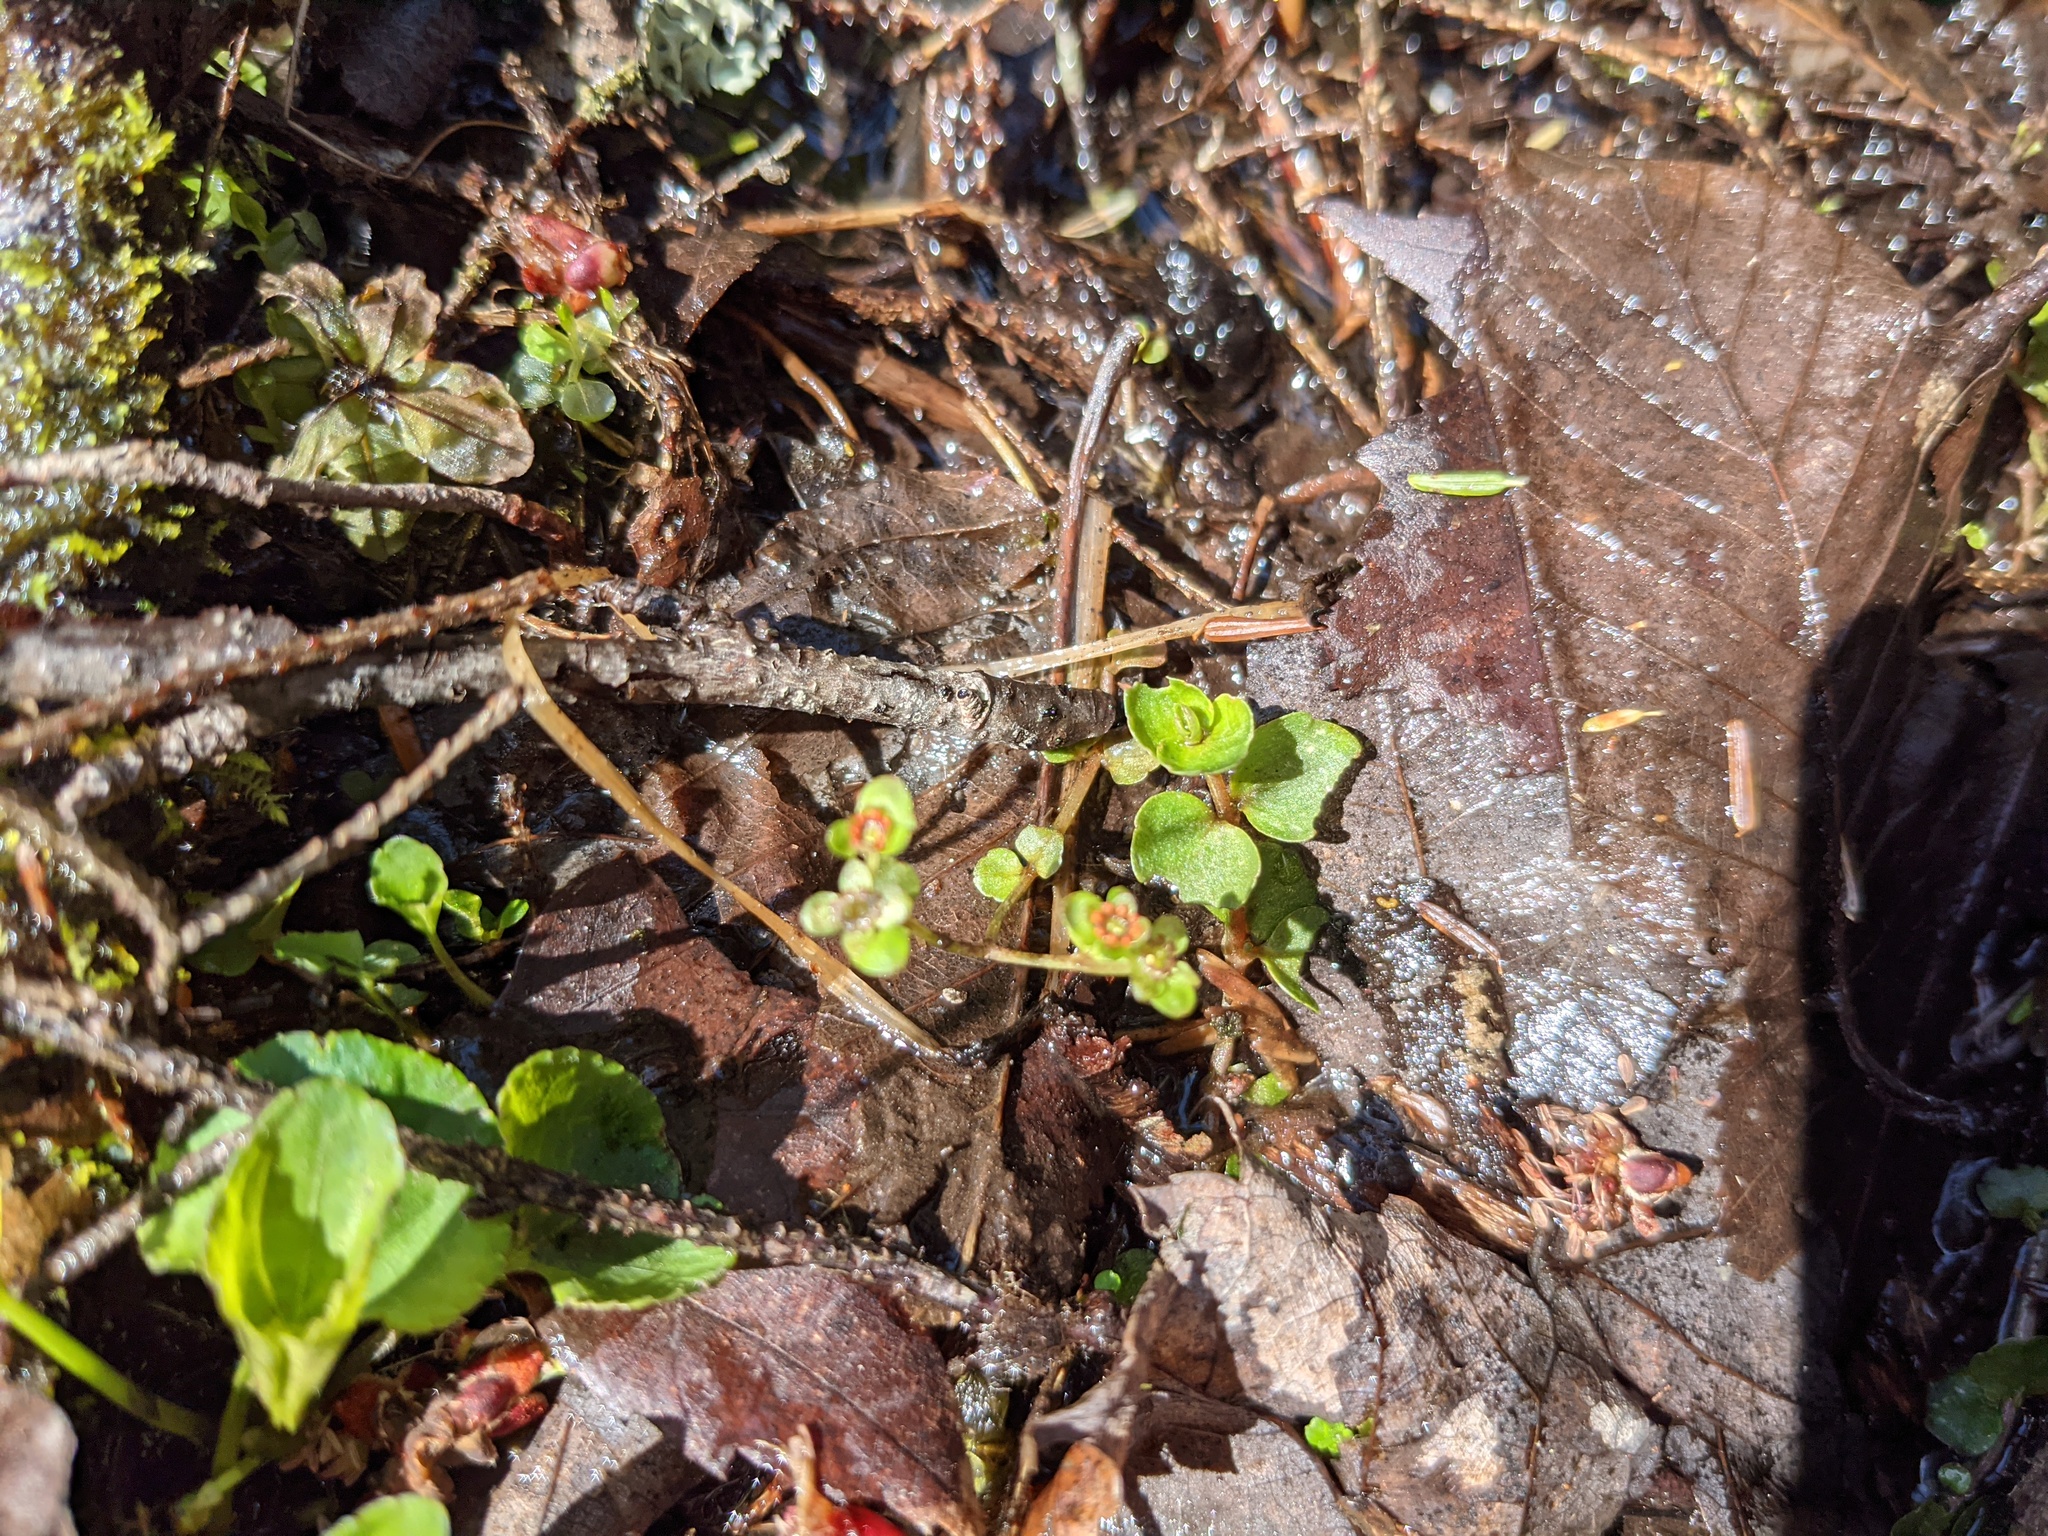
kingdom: Plantae
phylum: Tracheophyta
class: Magnoliopsida
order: Saxifragales
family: Saxifragaceae
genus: Chrysosplenium
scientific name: Chrysosplenium americanum
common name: American golden-saxifrage
